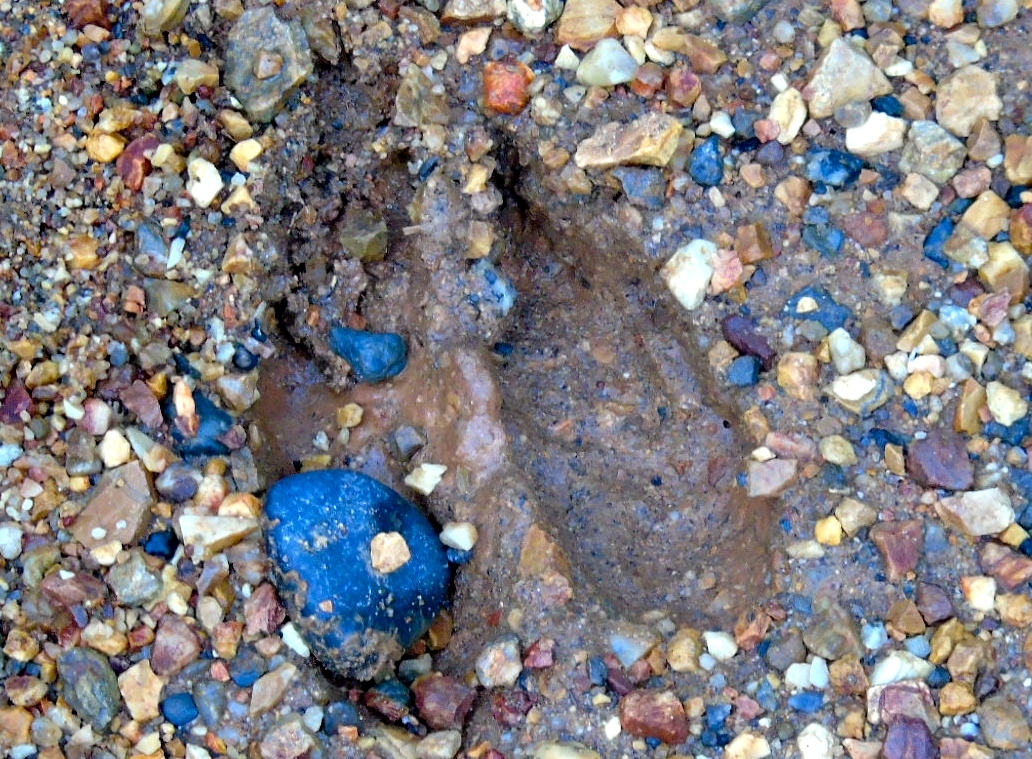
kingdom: Animalia
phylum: Chordata
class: Mammalia
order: Artiodactyla
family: Cervidae
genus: Odocoileus
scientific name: Odocoileus virginianus
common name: White-tailed deer
